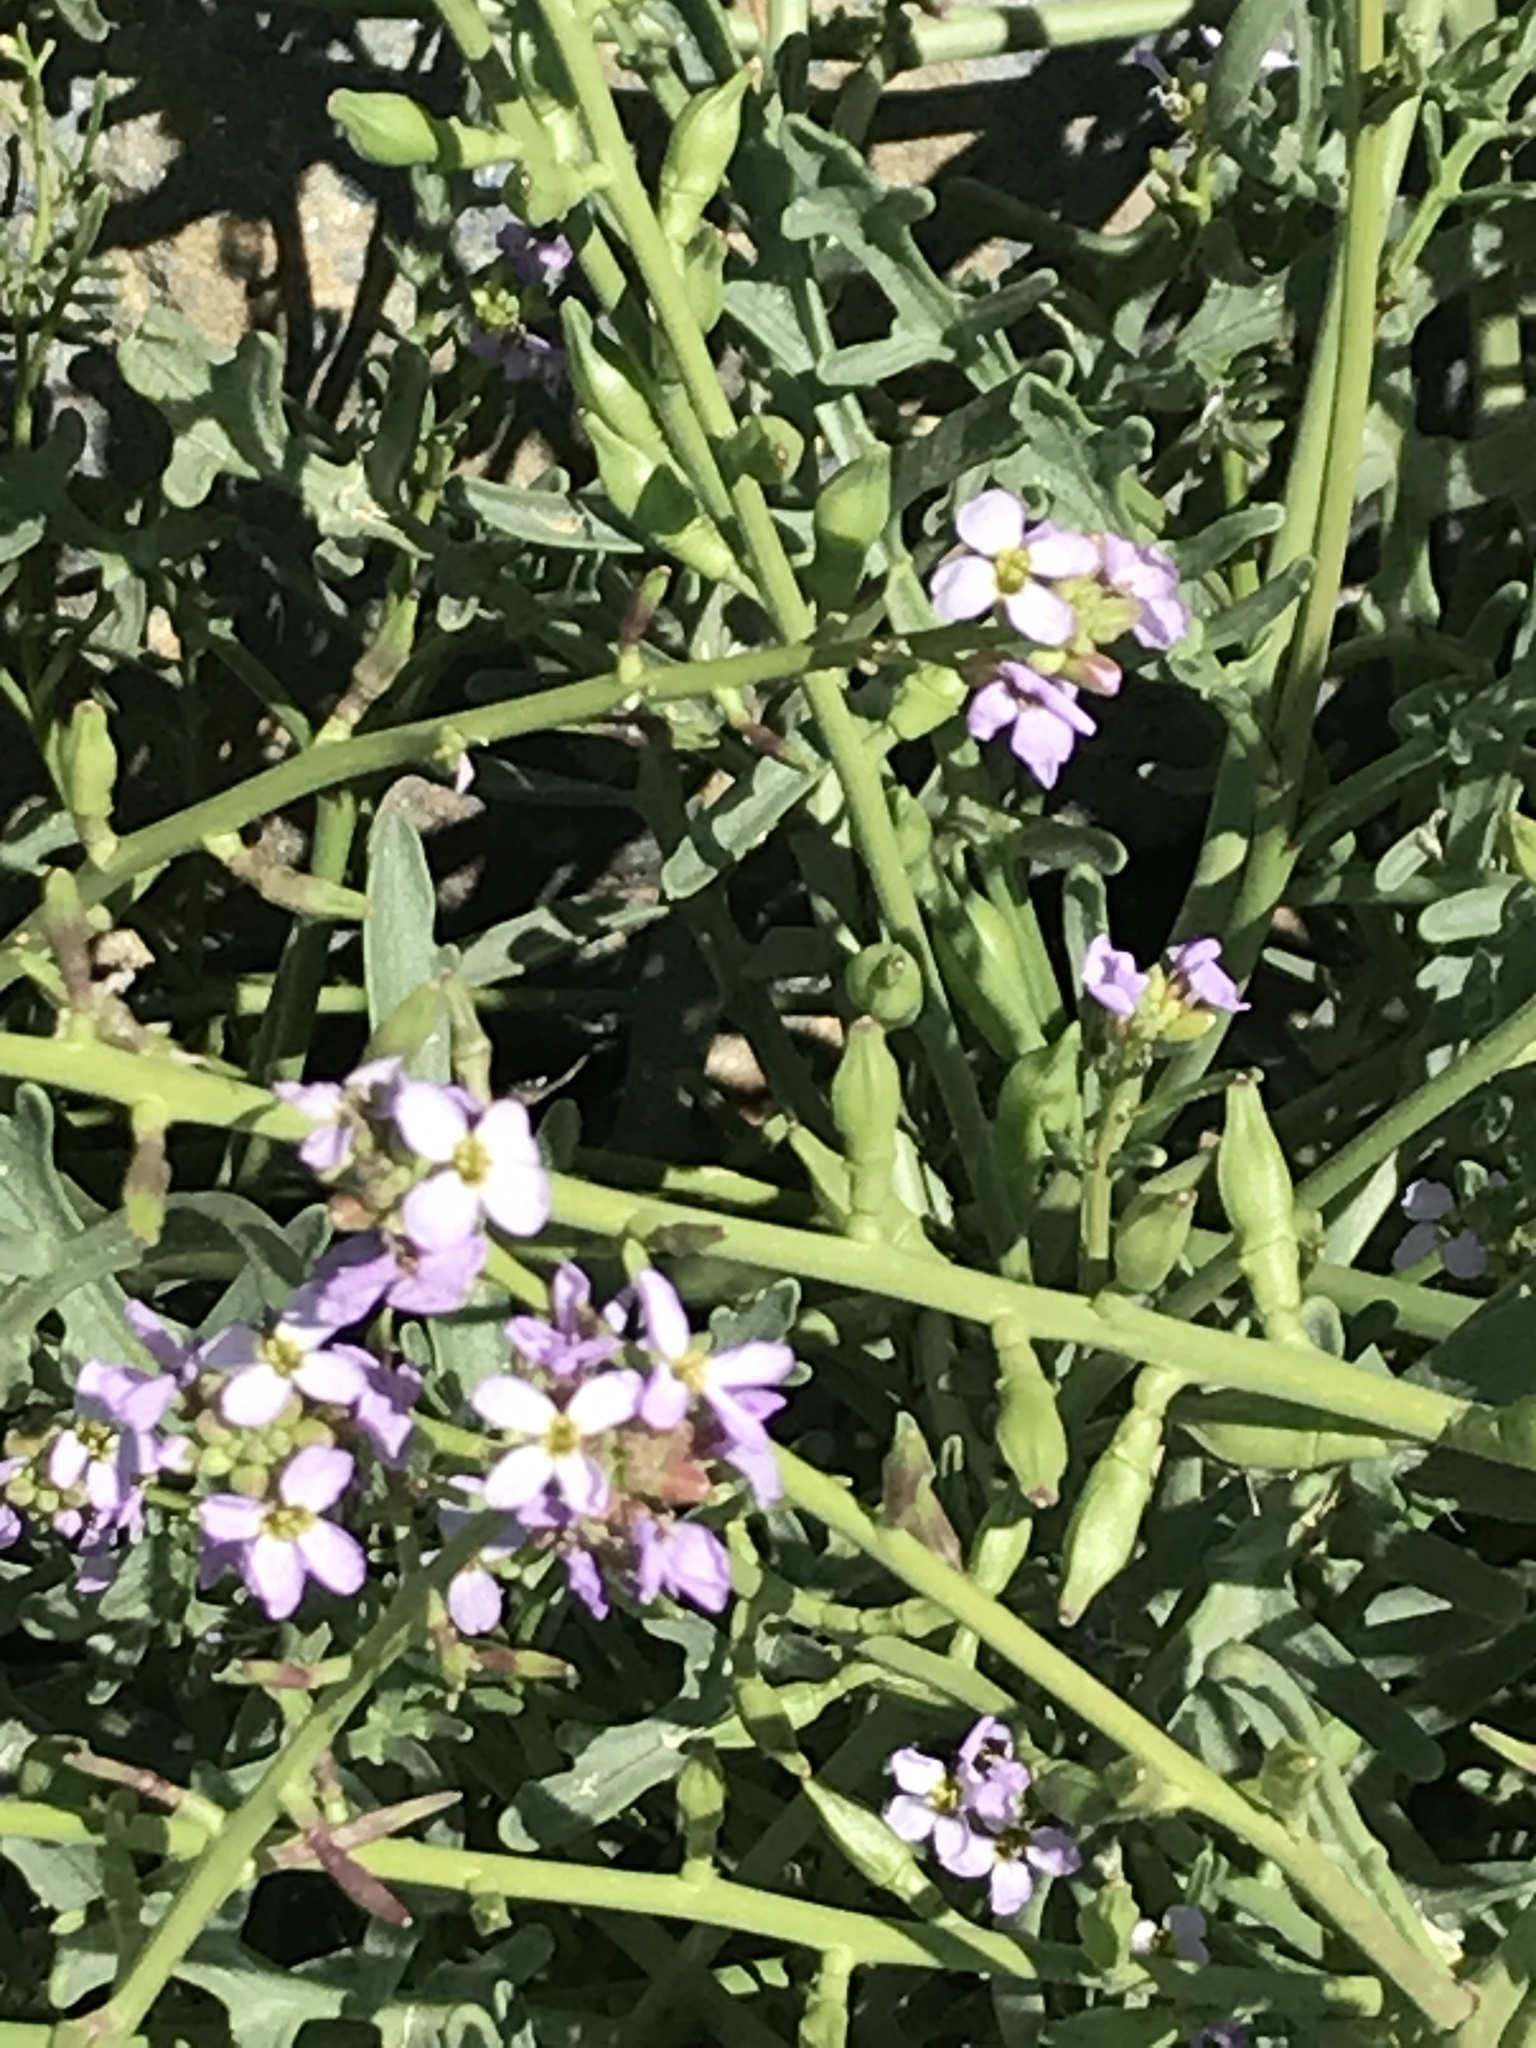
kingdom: Plantae
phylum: Tracheophyta
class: Magnoliopsida
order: Brassicales
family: Brassicaceae
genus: Cakile
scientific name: Cakile maritima
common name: Sea rocket
